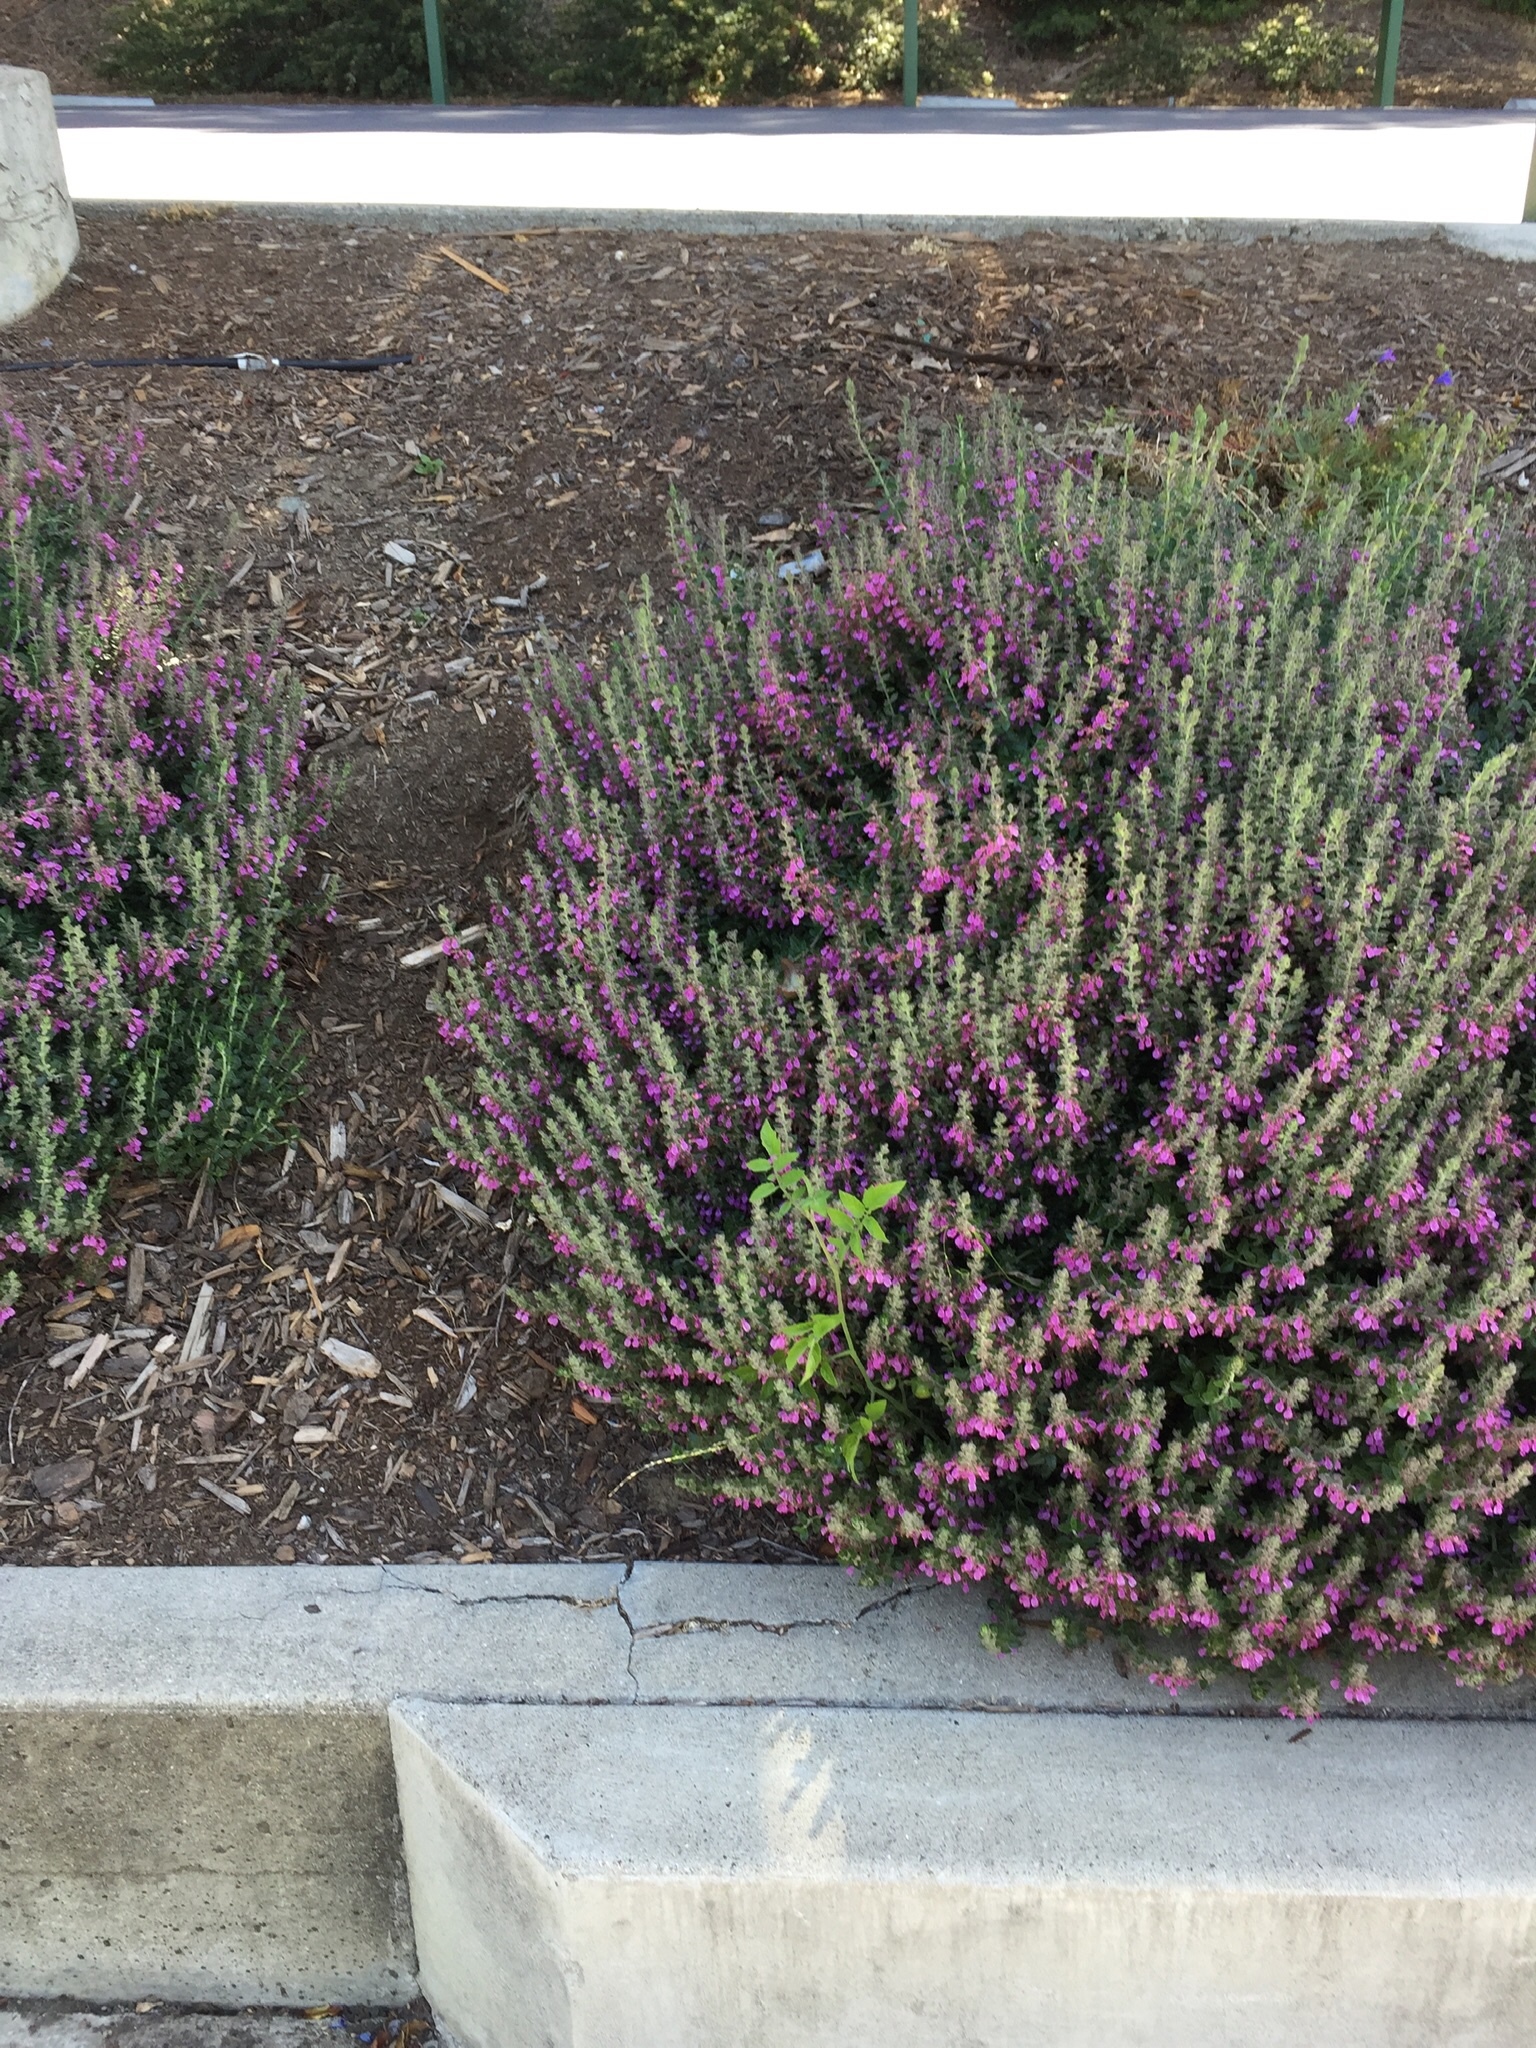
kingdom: Plantae
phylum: Tracheophyta
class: Magnoliopsida
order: Solanales
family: Solanaceae
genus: Solanum
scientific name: Solanum lycopersicum
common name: Garden tomato
